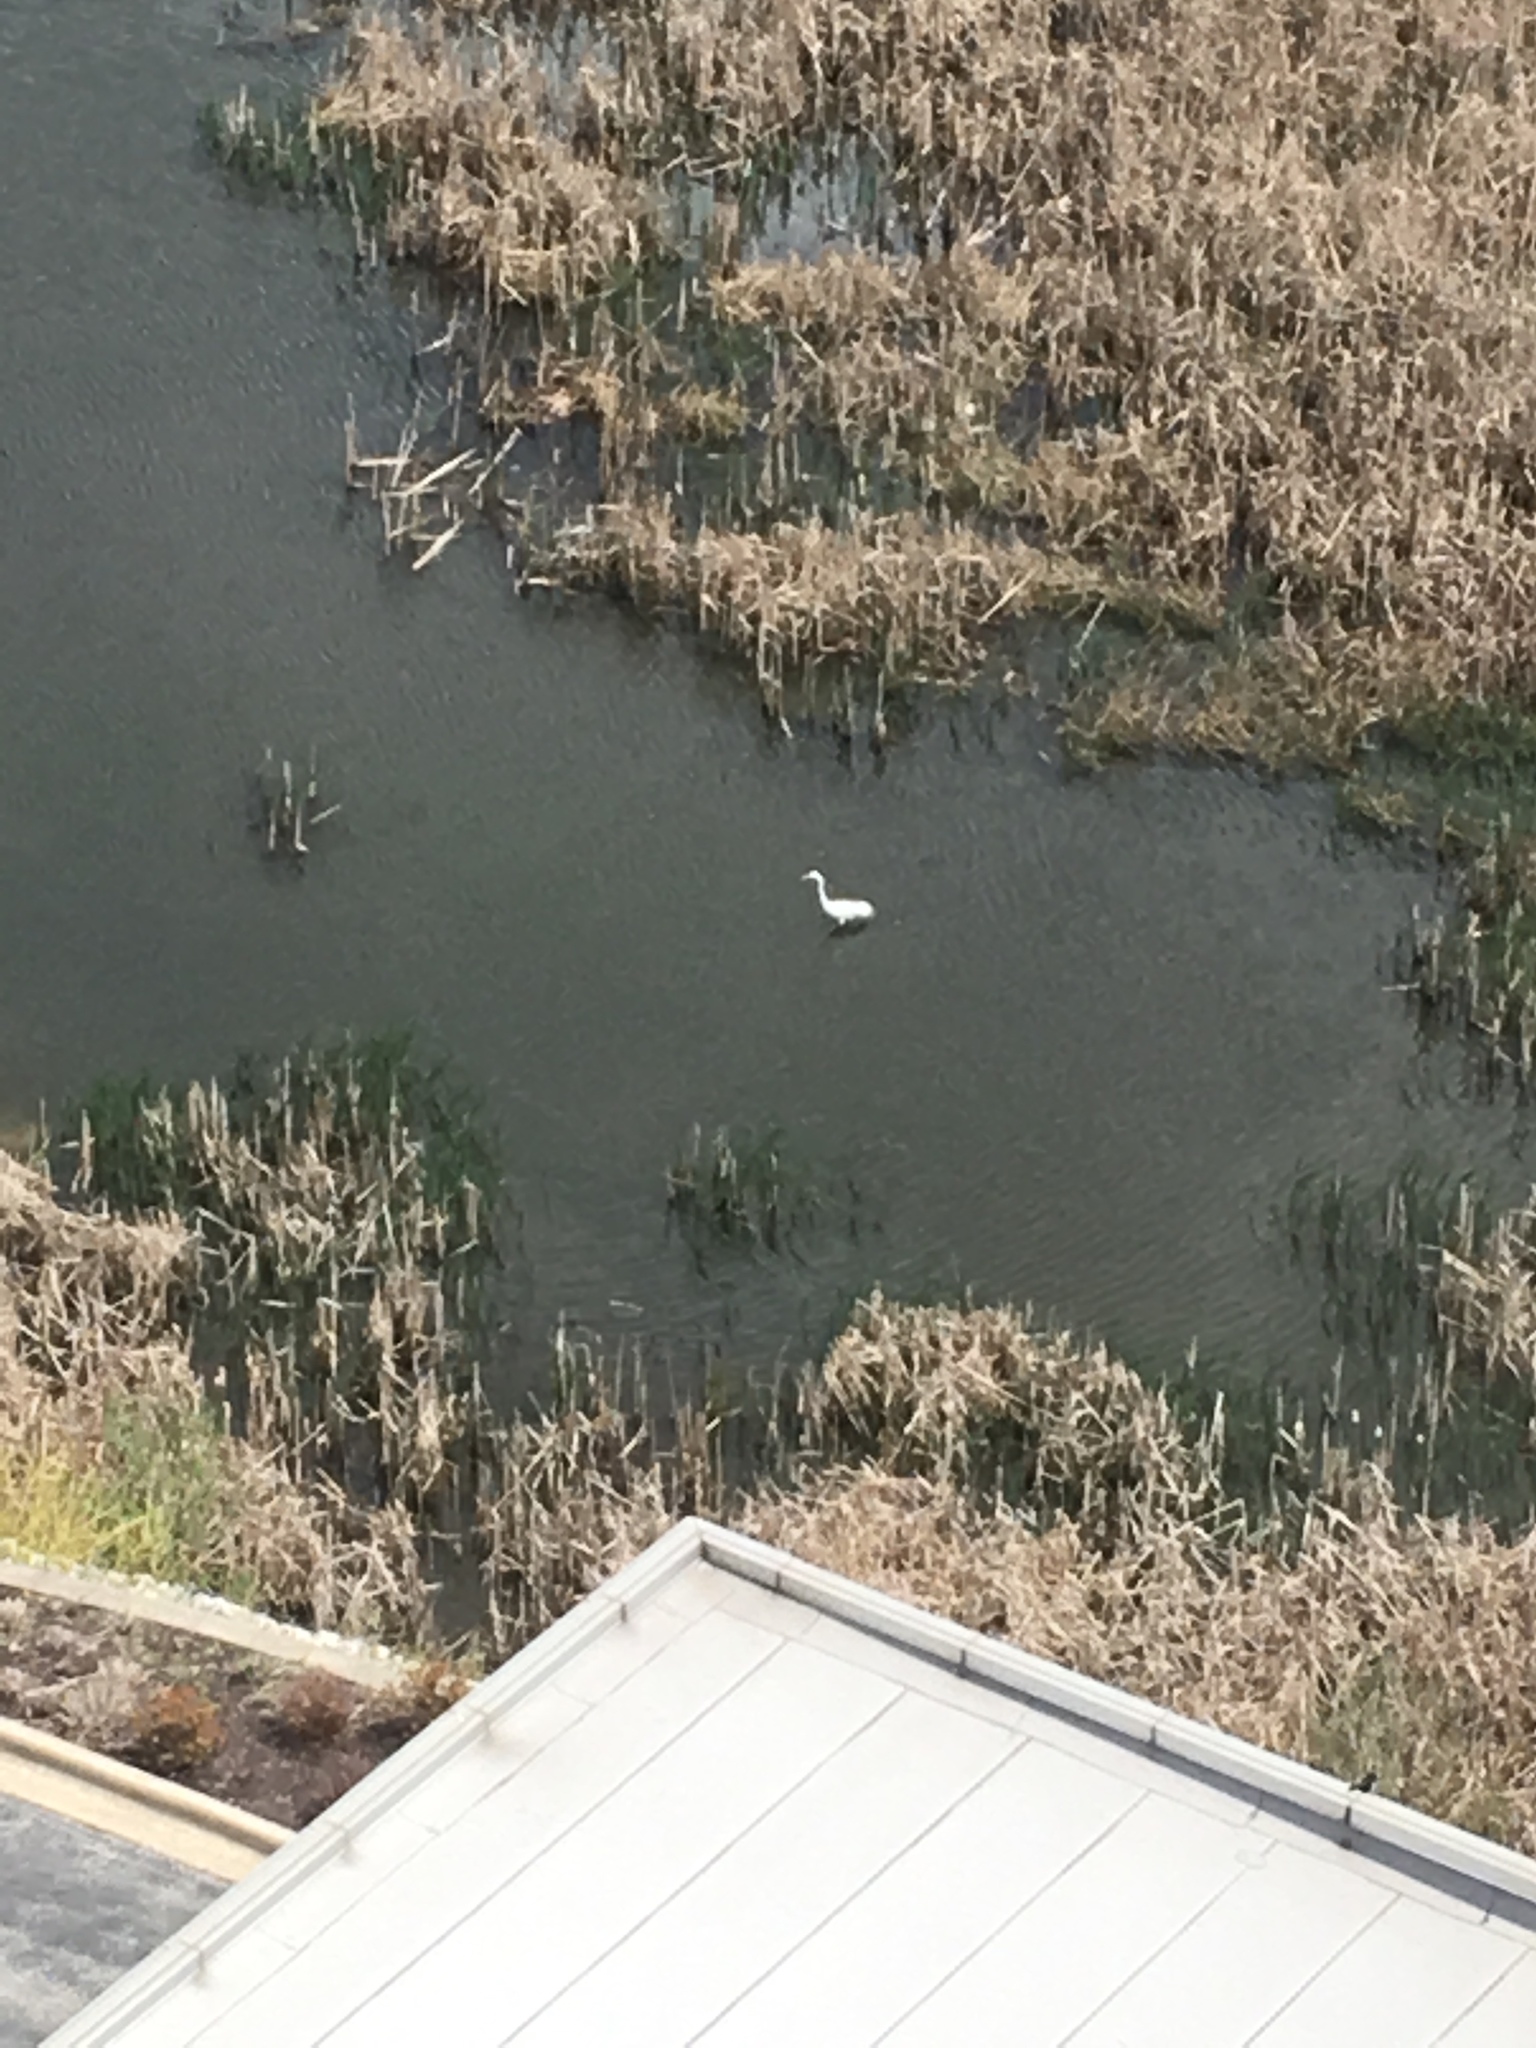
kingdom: Animalia
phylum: Chordata
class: Aves
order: Pelecaniformes
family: Ardeidae
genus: Ardea
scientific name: Ardea alba
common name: Great egret
